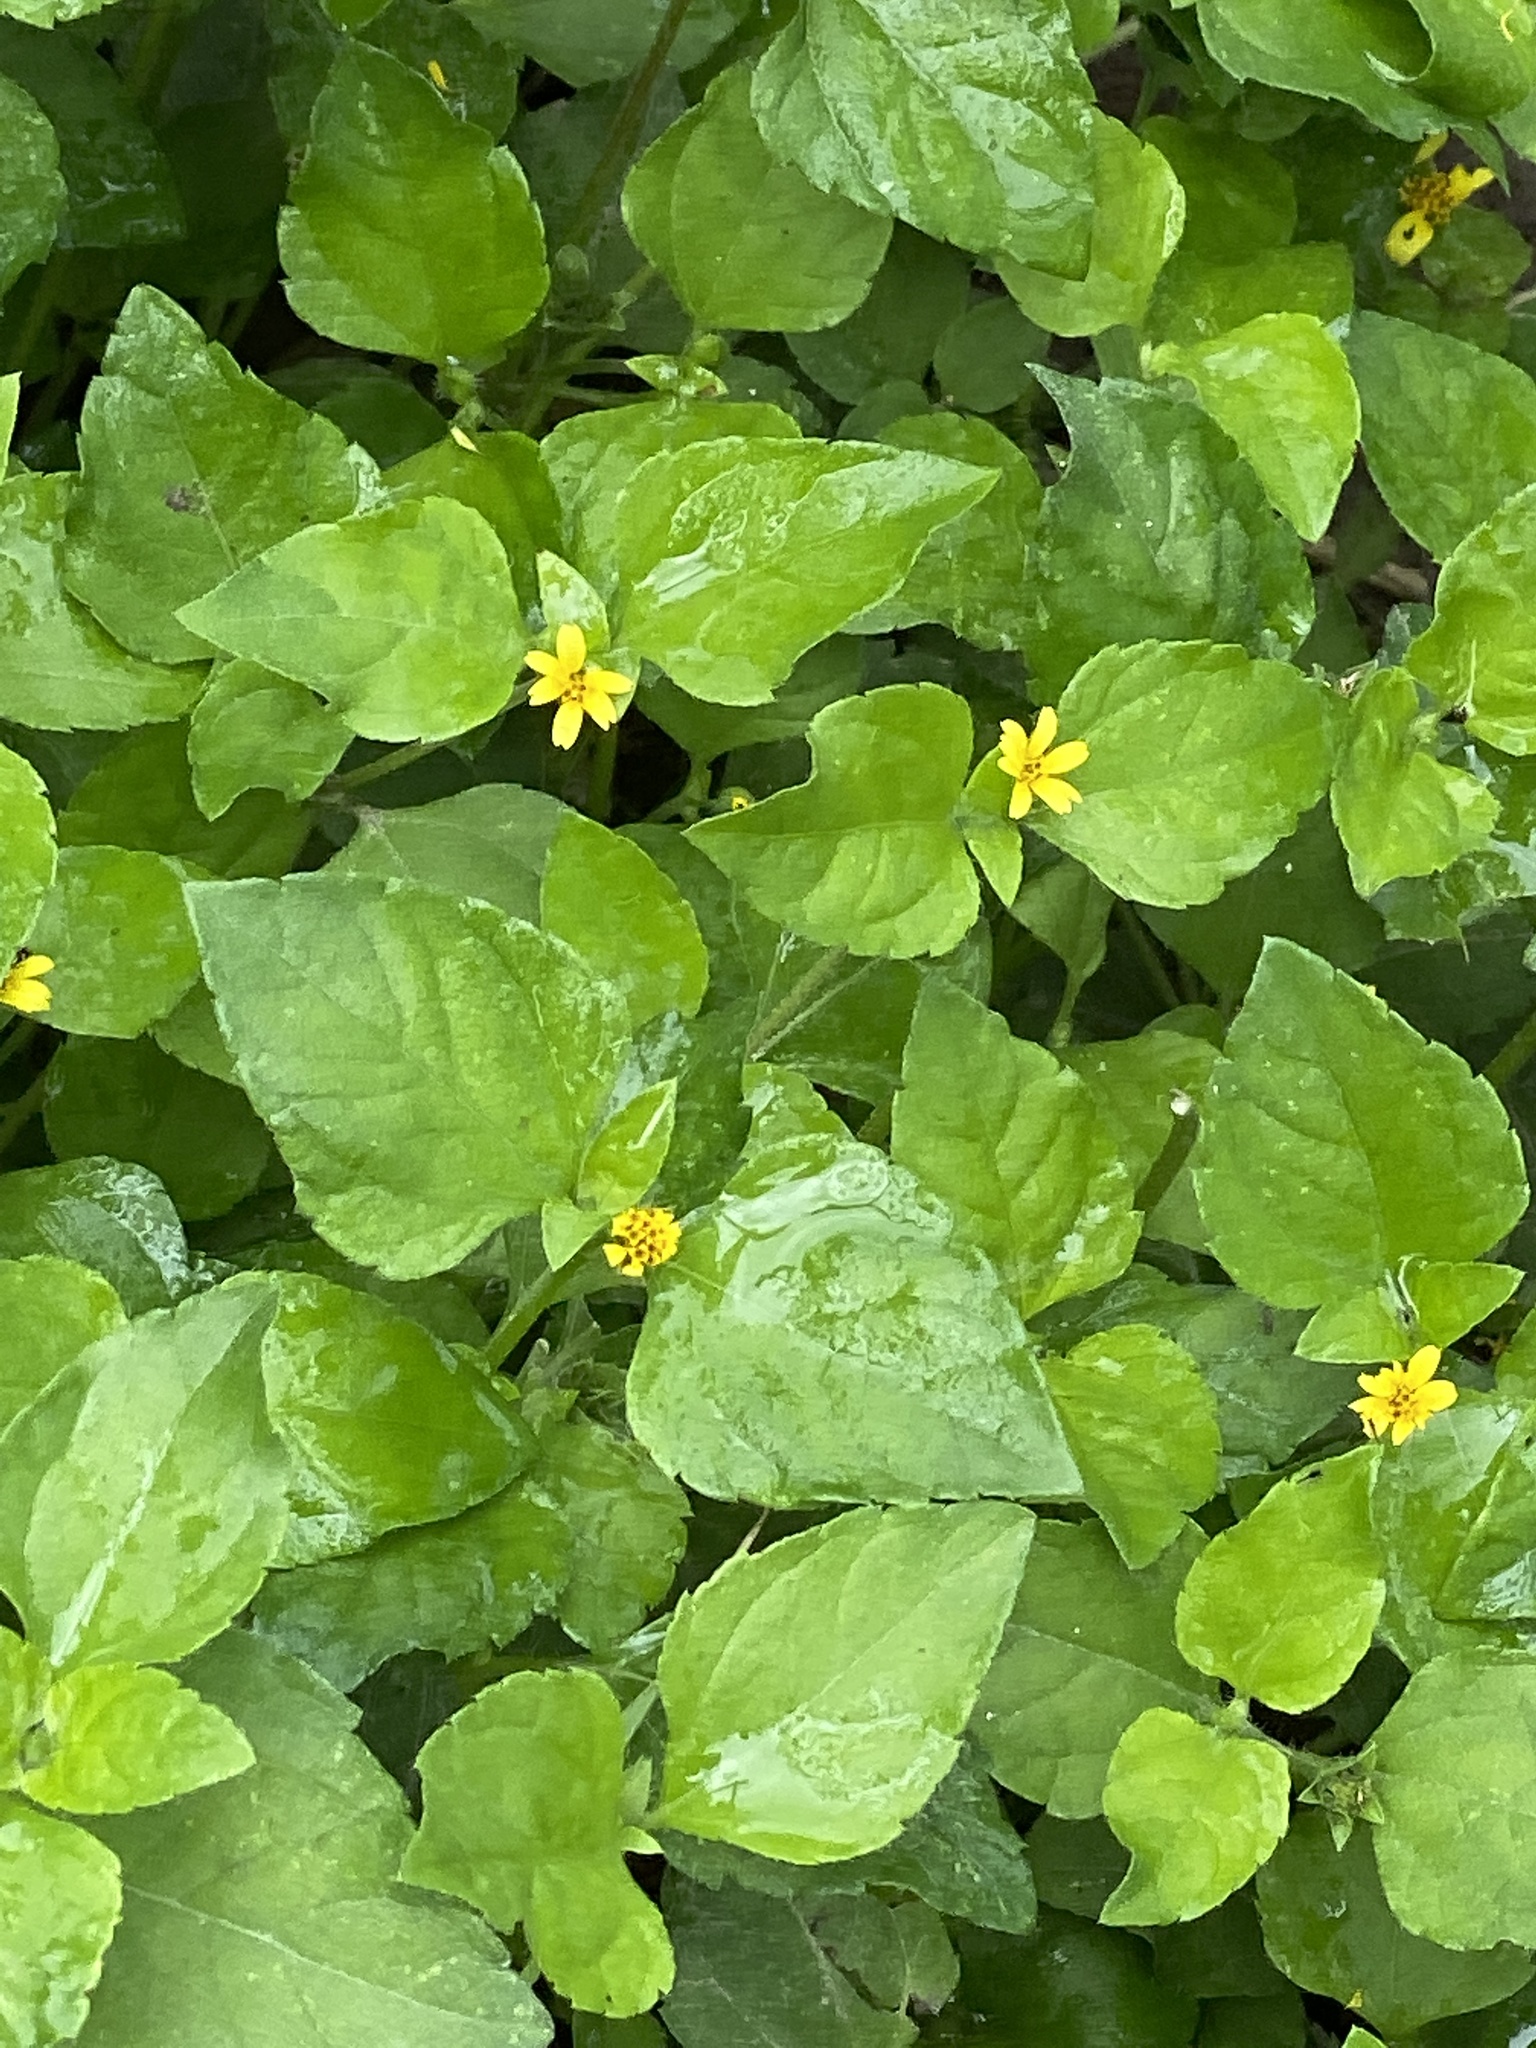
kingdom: Plantae
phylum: Tracheophyta
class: Magnoliopsida
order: Asterales
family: Asteraceae
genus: Calyptocarpus
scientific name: Calyptocarpus vialis
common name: Straggler daisy
